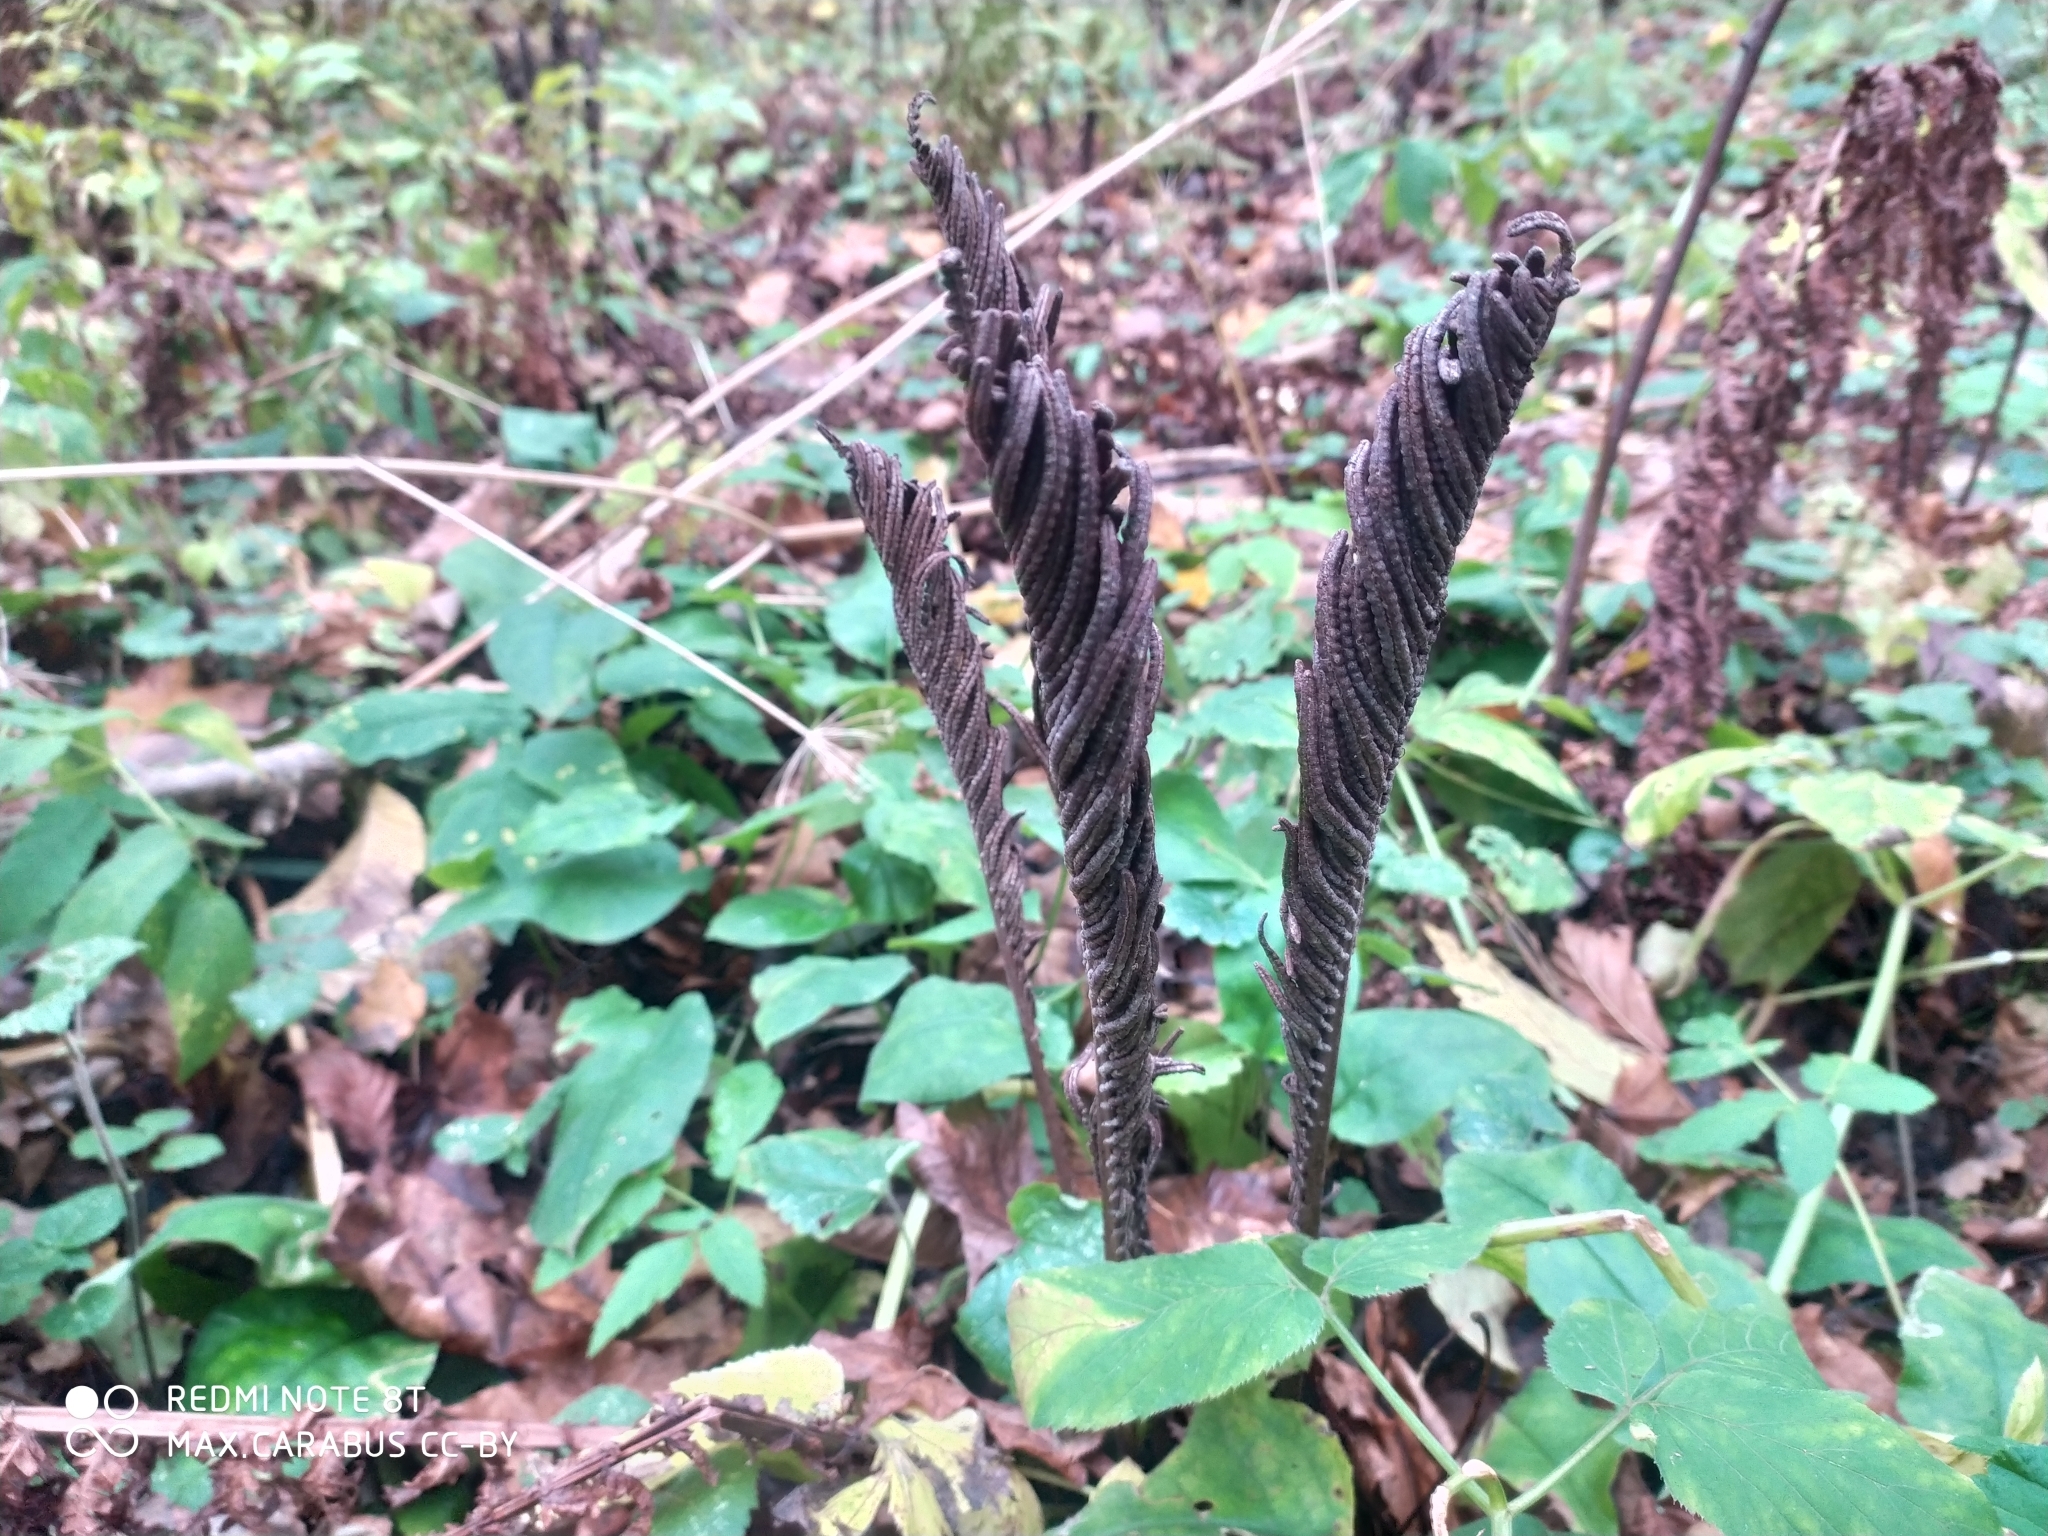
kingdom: Plantae
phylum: Tracheophyta
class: Polypodiopsida
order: Polypodiales
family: Onocleaceae
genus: Matteuccia
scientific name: Matteuccia struthiopteris
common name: Ostrich fern
